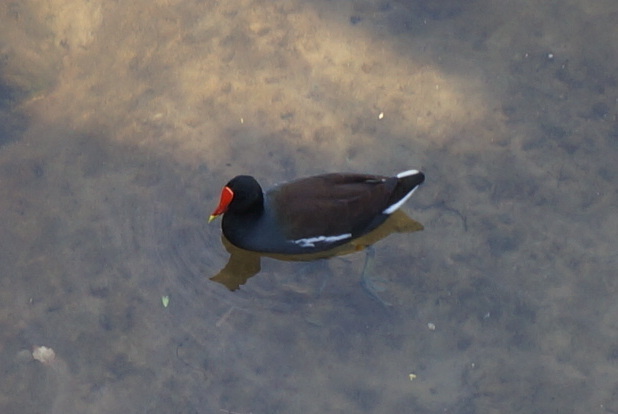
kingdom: Animalia
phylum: Chordata
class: Aves
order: Gruiformes
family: Rallidae
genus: Gallinula
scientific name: Gallinula chloropus
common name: Common moorhen
